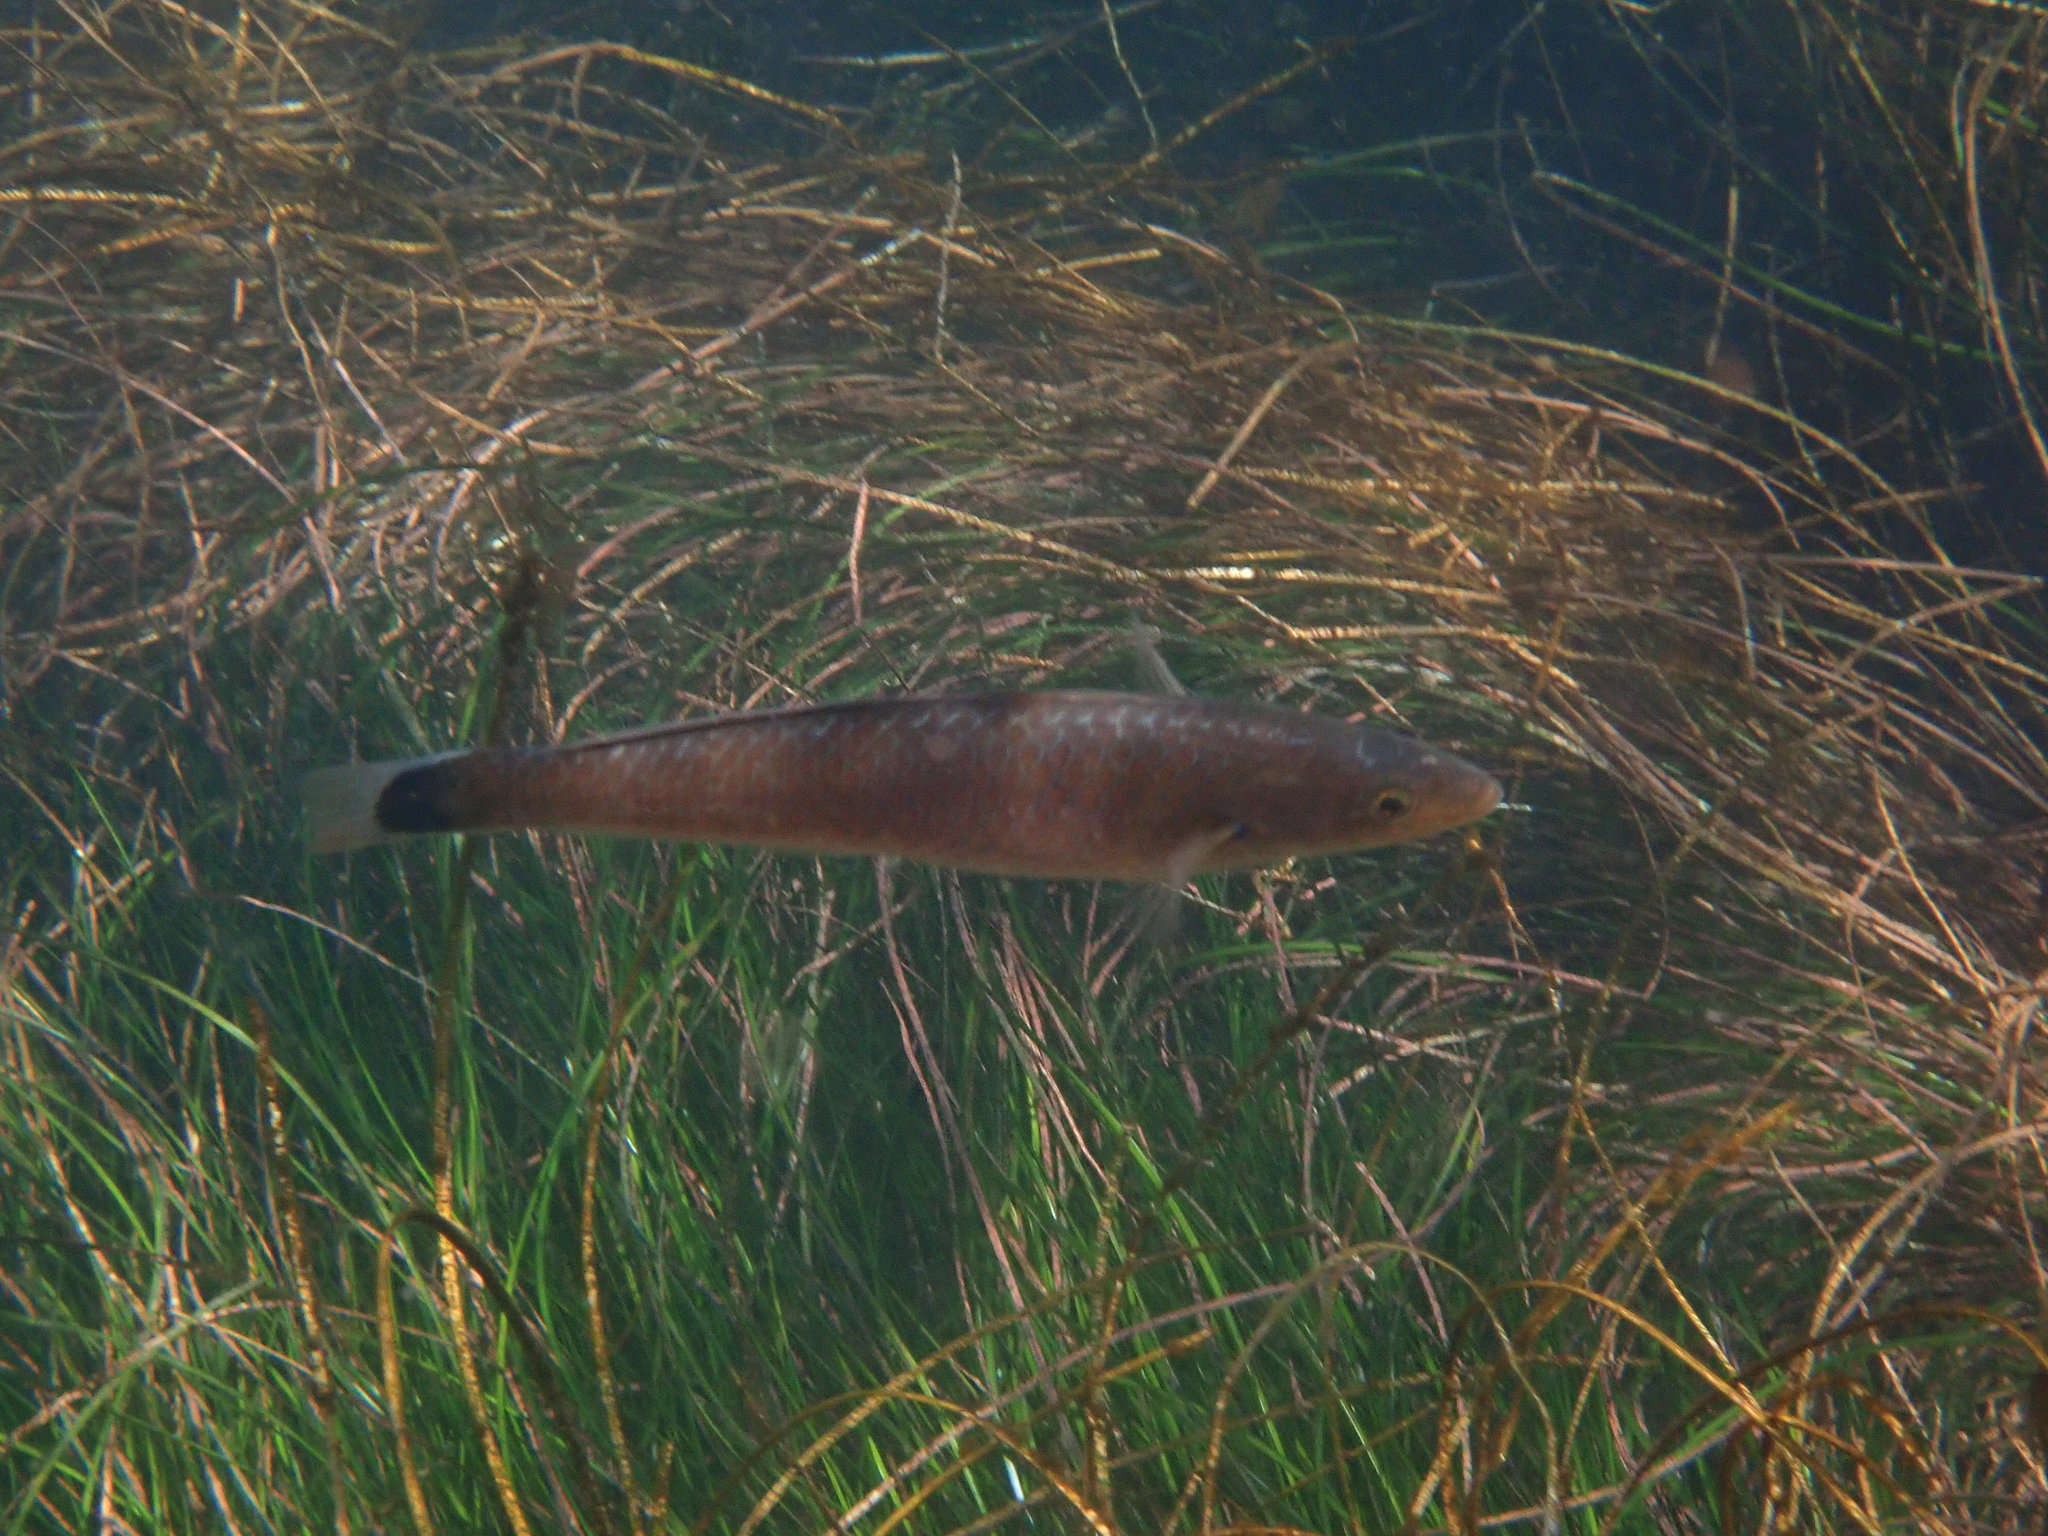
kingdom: Animalia
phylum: Chordata
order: Perciformes
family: Labridae
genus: Oxyjulis
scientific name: Oxyjulis californica
